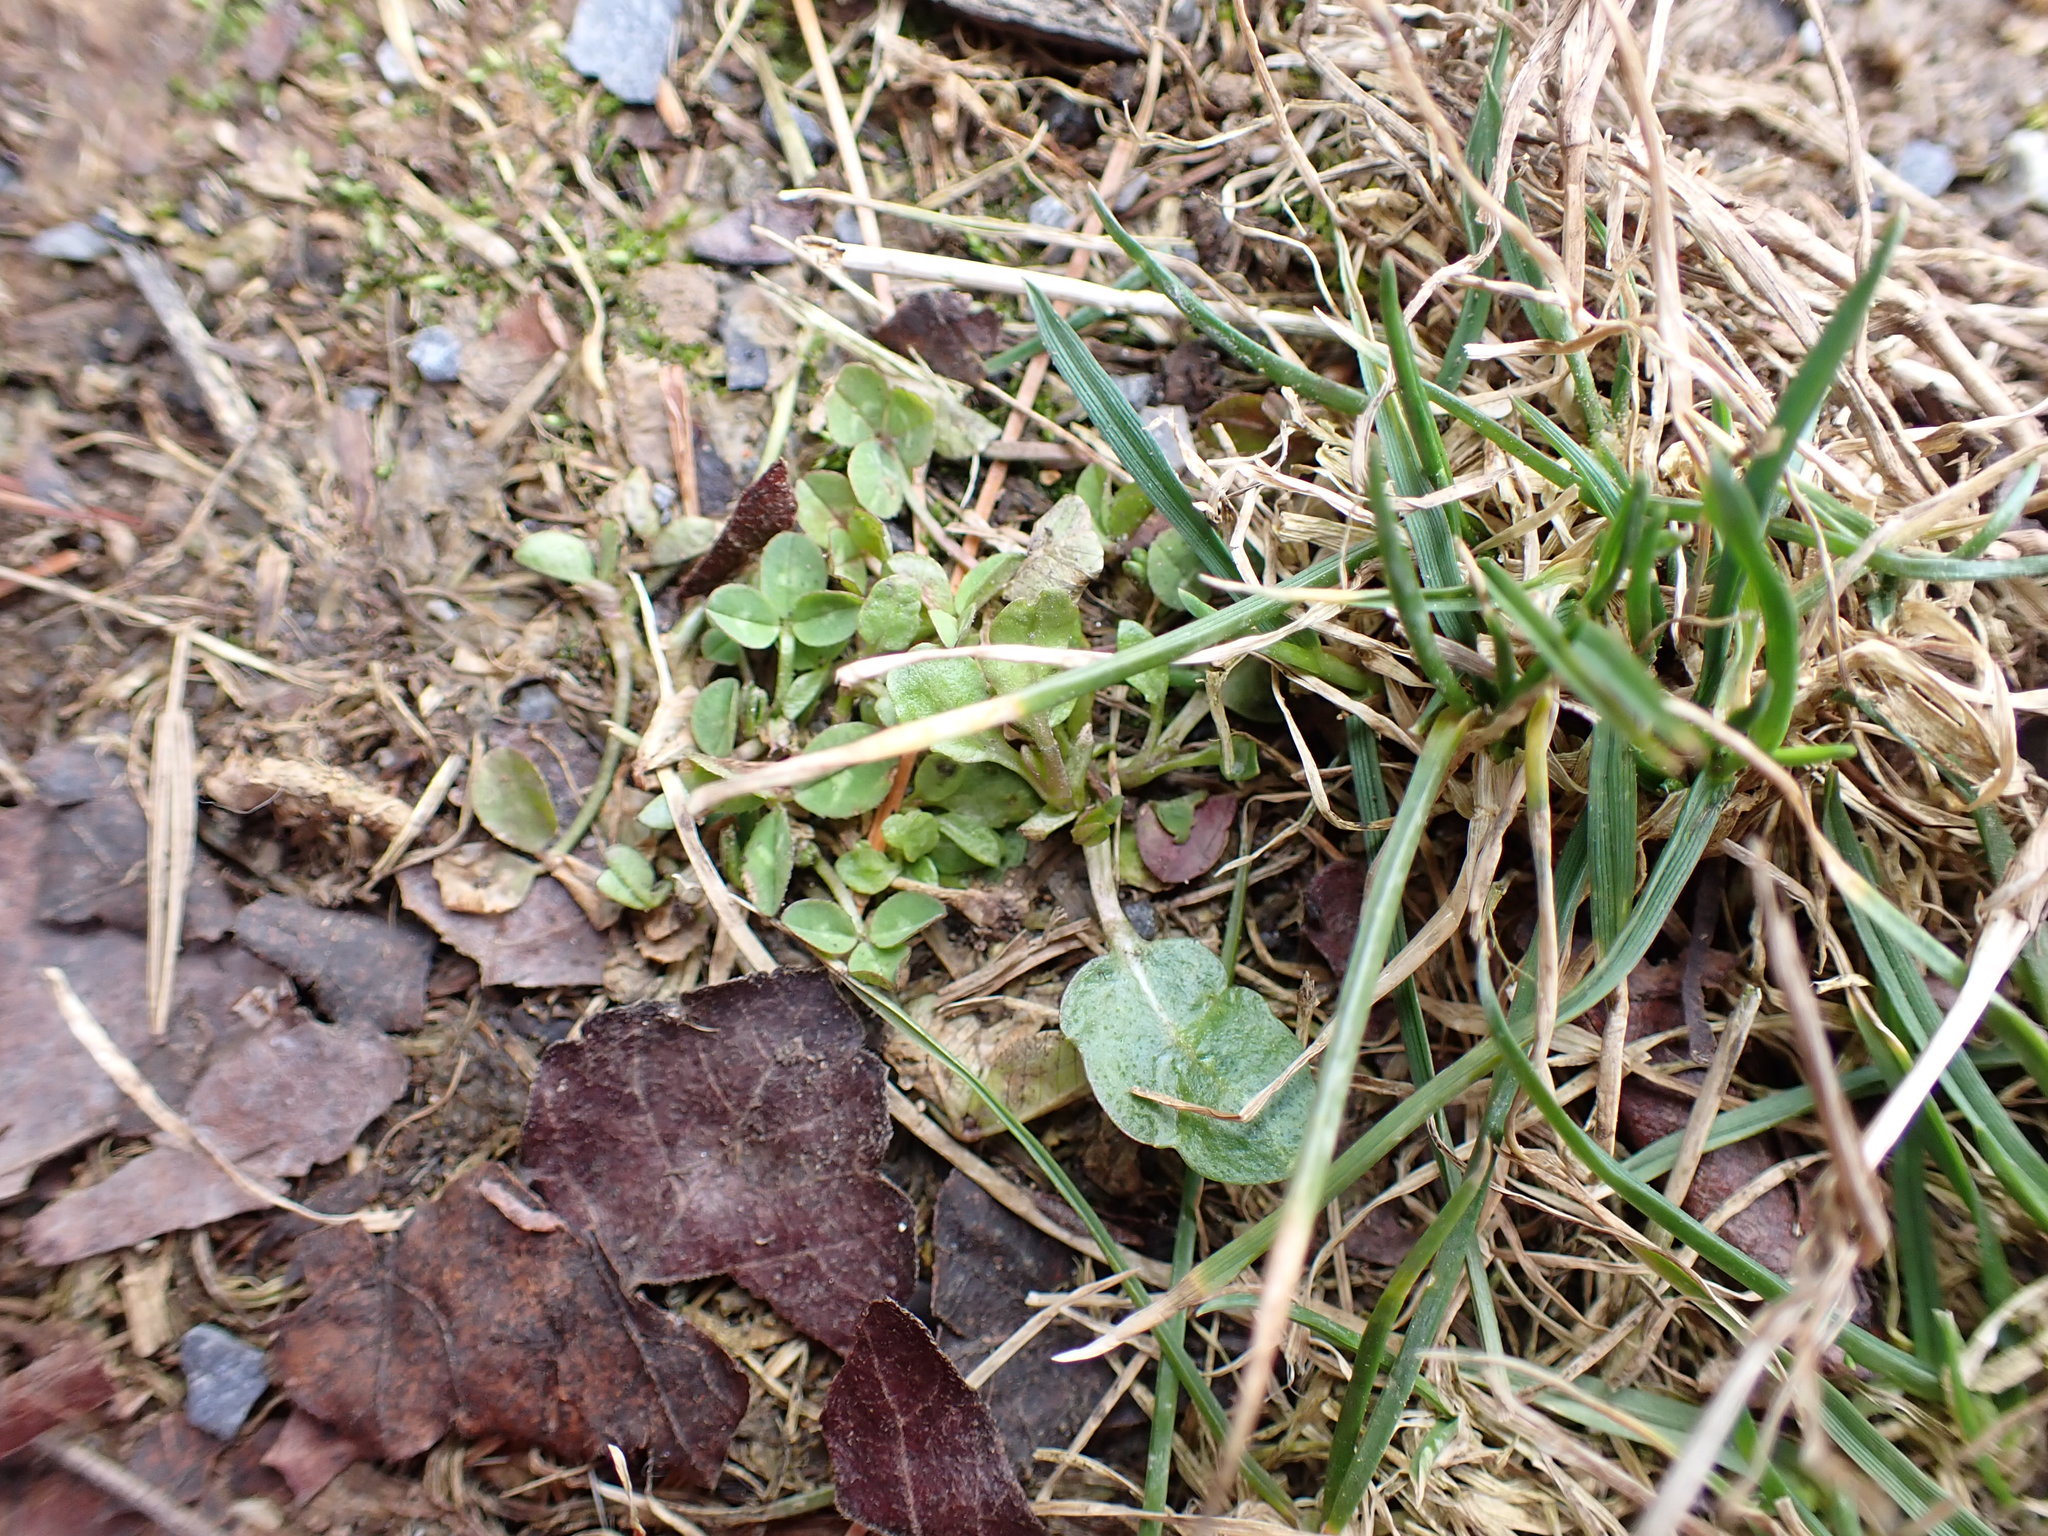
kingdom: Plantae
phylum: Tracheophyta
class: Magnoliopsida
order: Fabales
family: Fabaceae
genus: Trifolium
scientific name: Trifolium repens
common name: White clover
